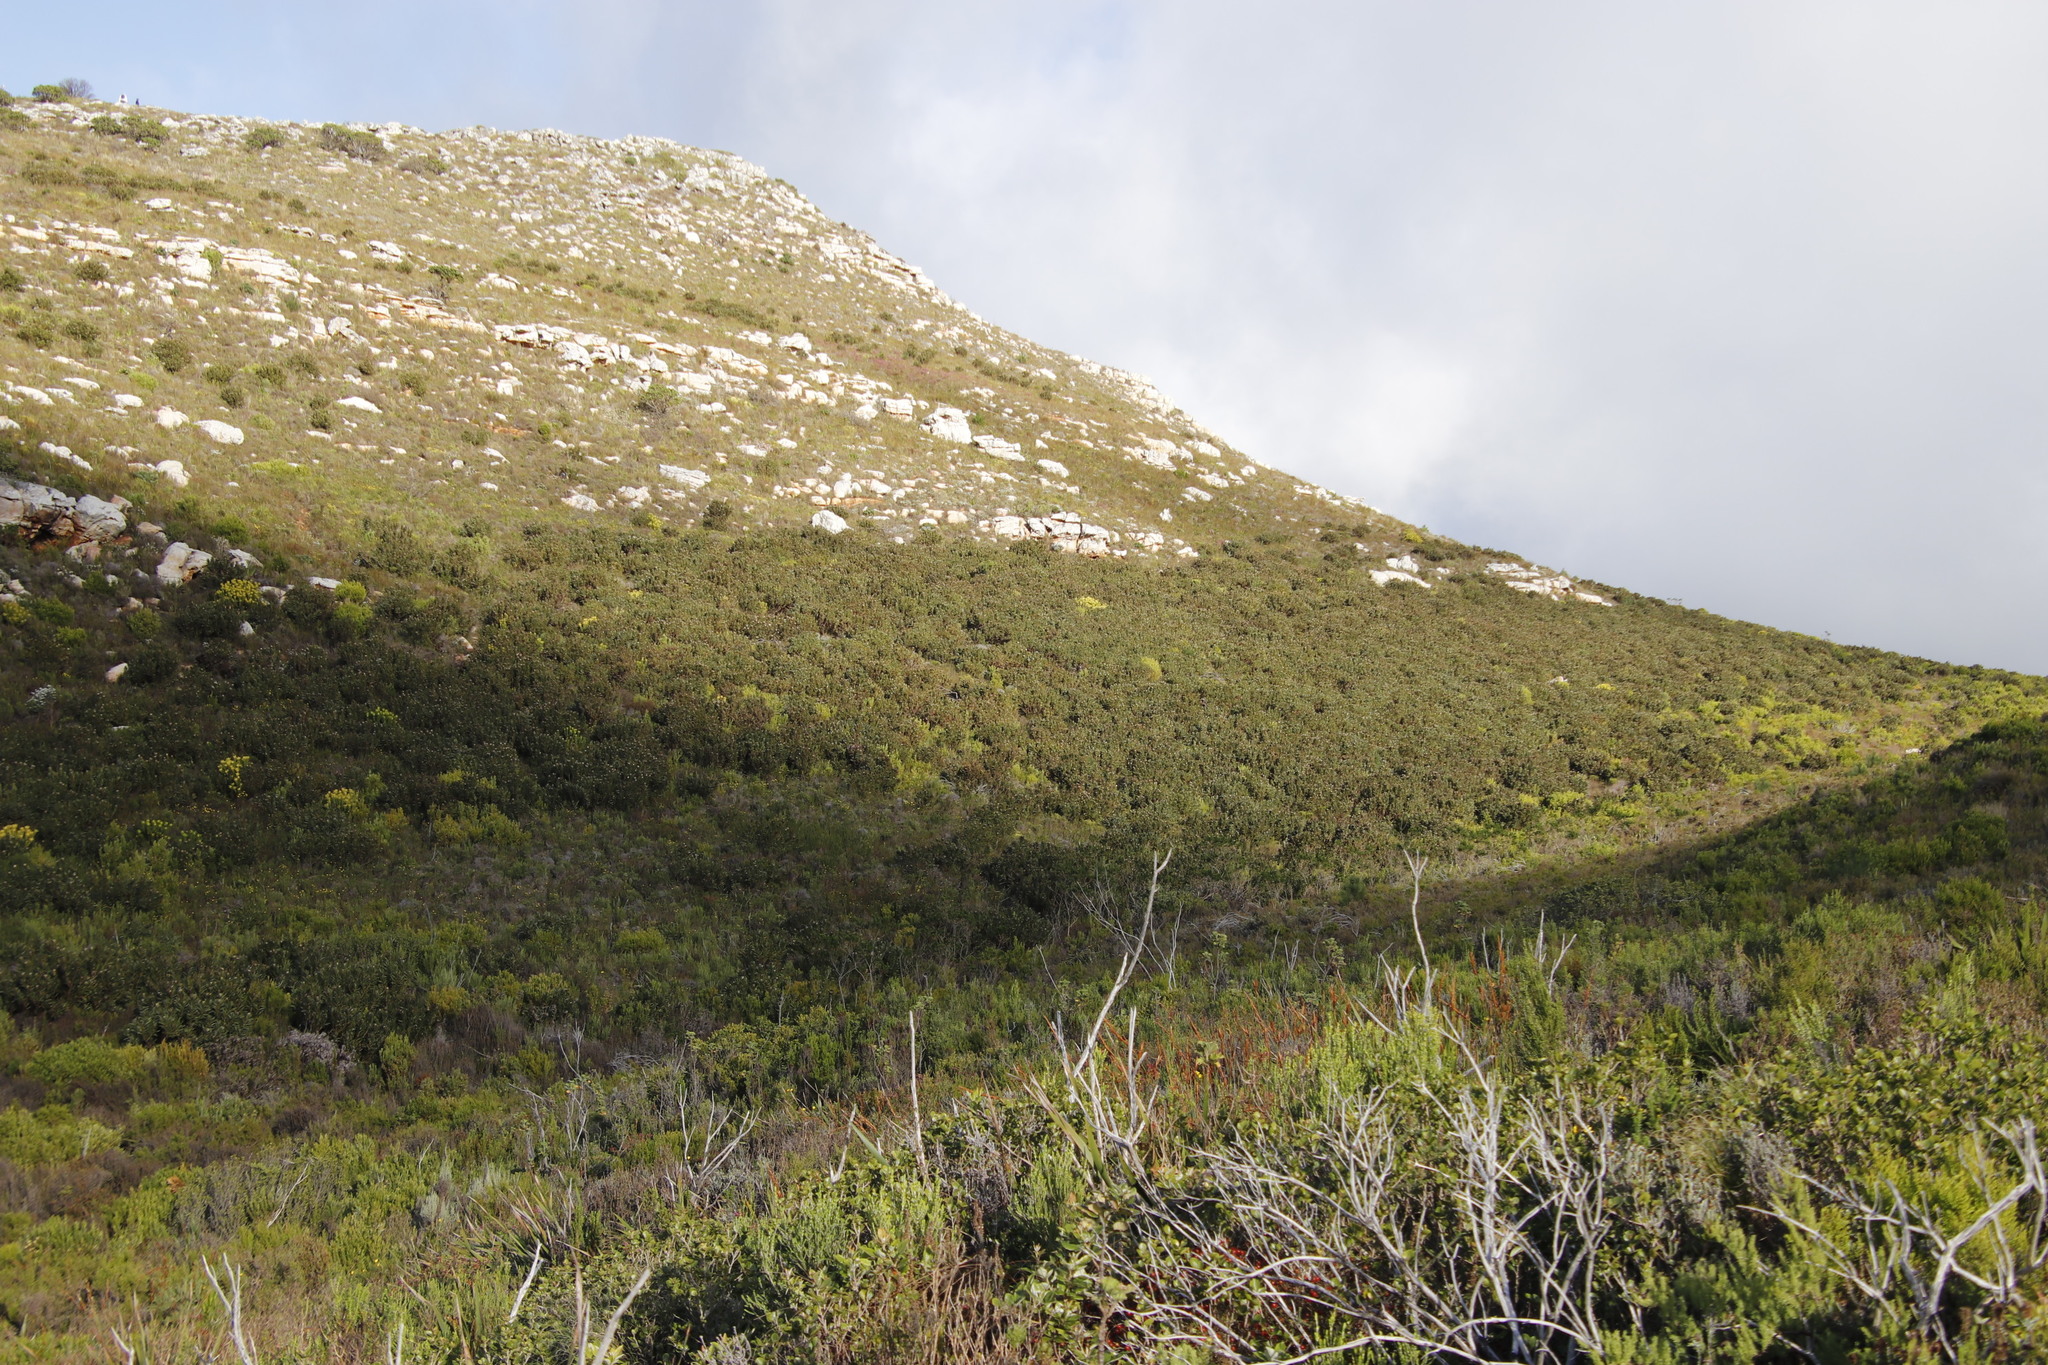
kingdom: Plantae
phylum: Tracheophyta
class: Magnoliopsida
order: Proteales
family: Proteaceae
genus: Protea
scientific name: Protea lepidocarpodendron
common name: Black-bearded protea
